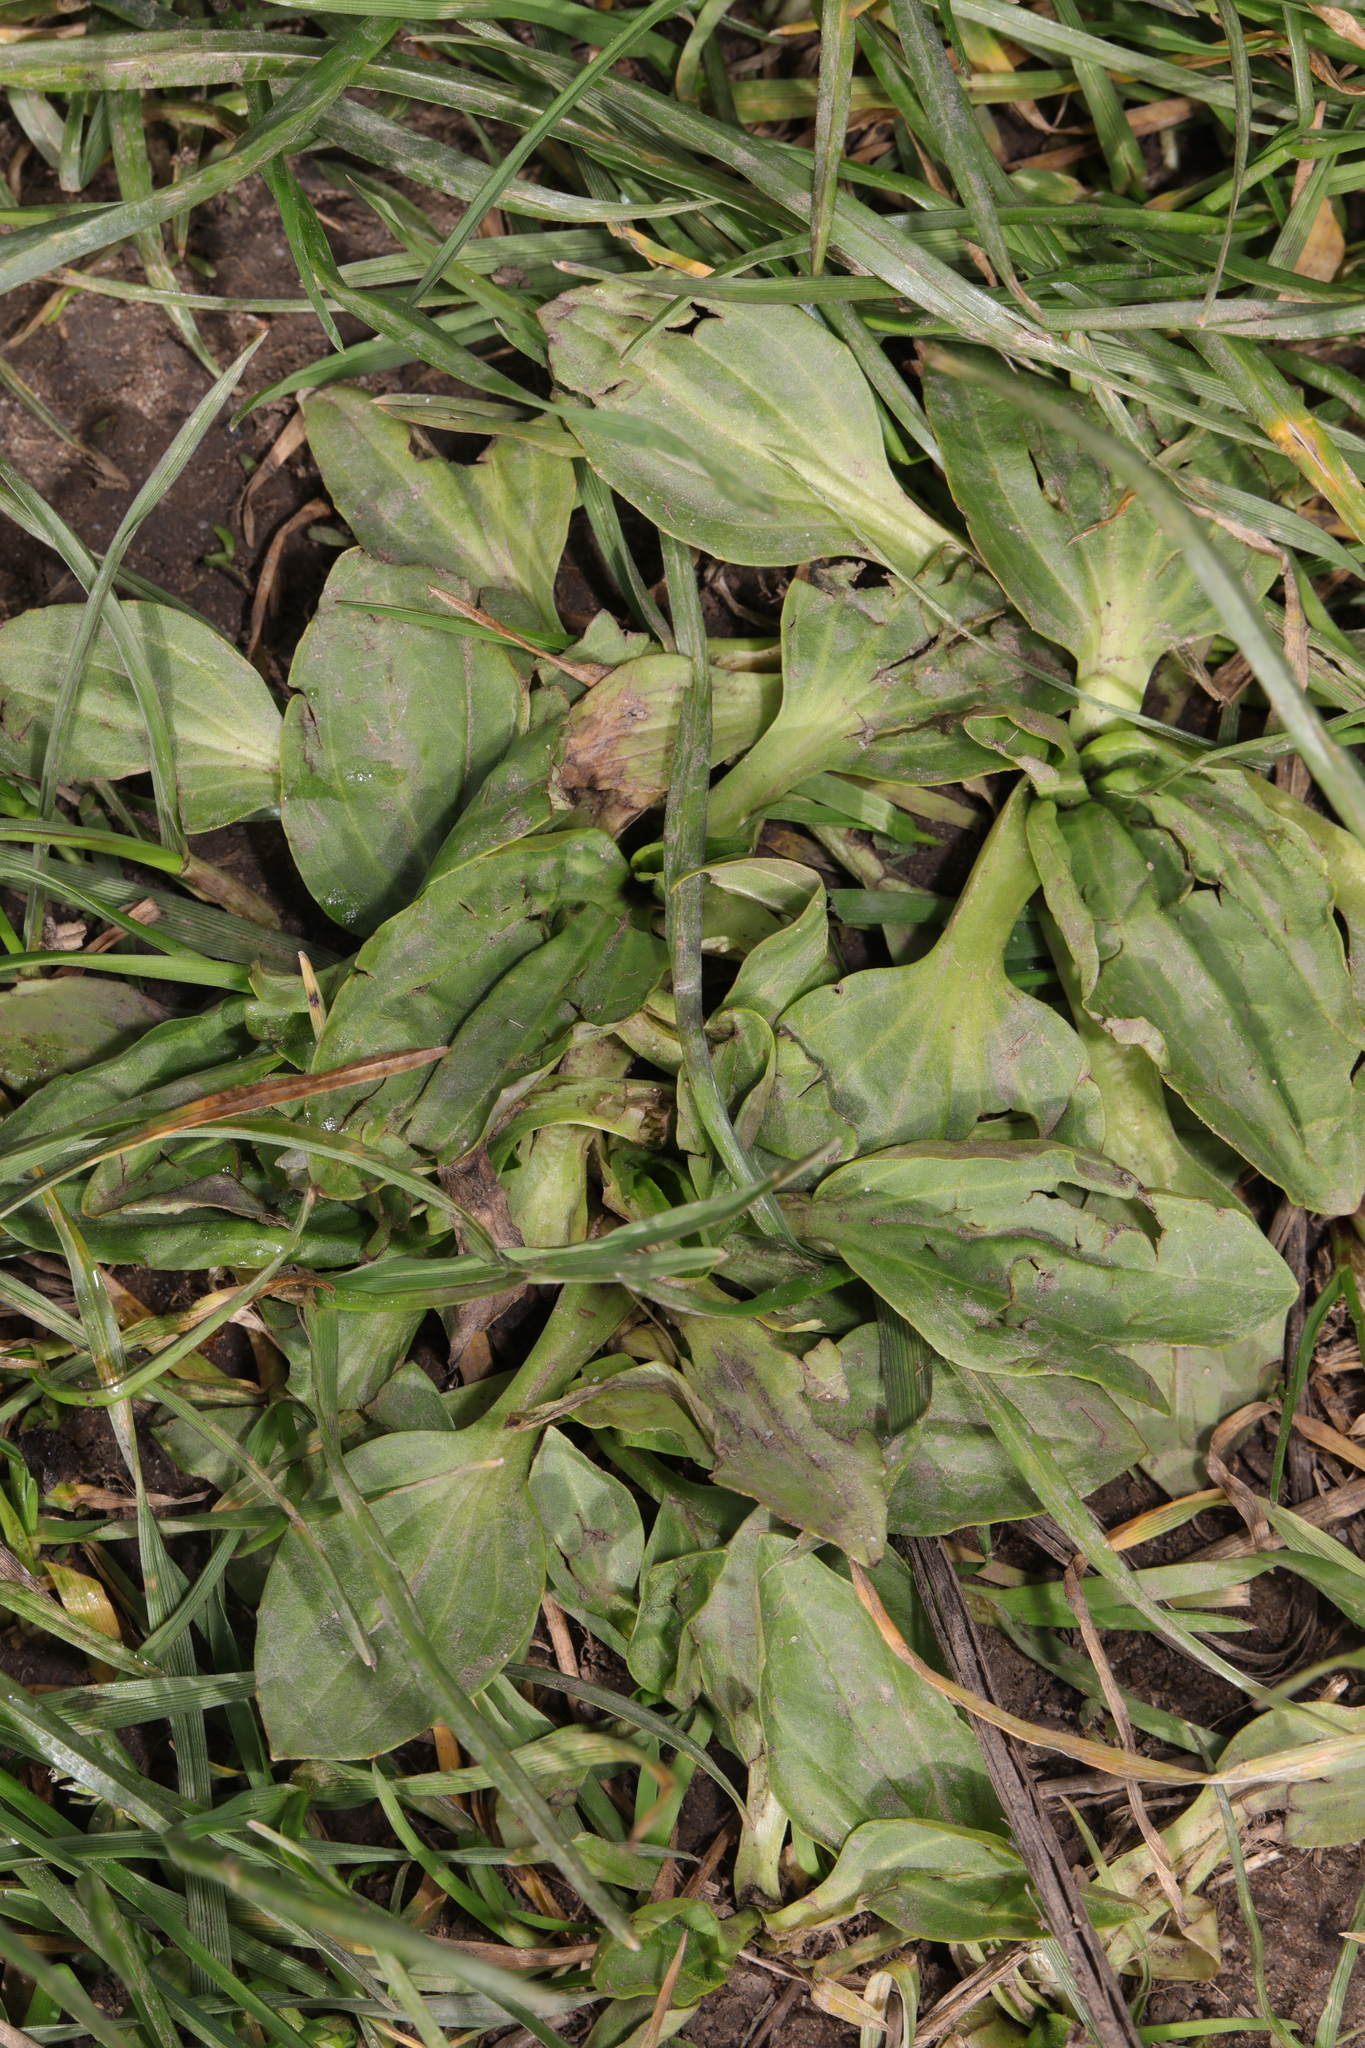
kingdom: Plantae
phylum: Tracheophyta
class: Magnoliopsida
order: Lamiales
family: Plantaginaceae
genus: Plantago
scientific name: Plantago major
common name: Common plantain
